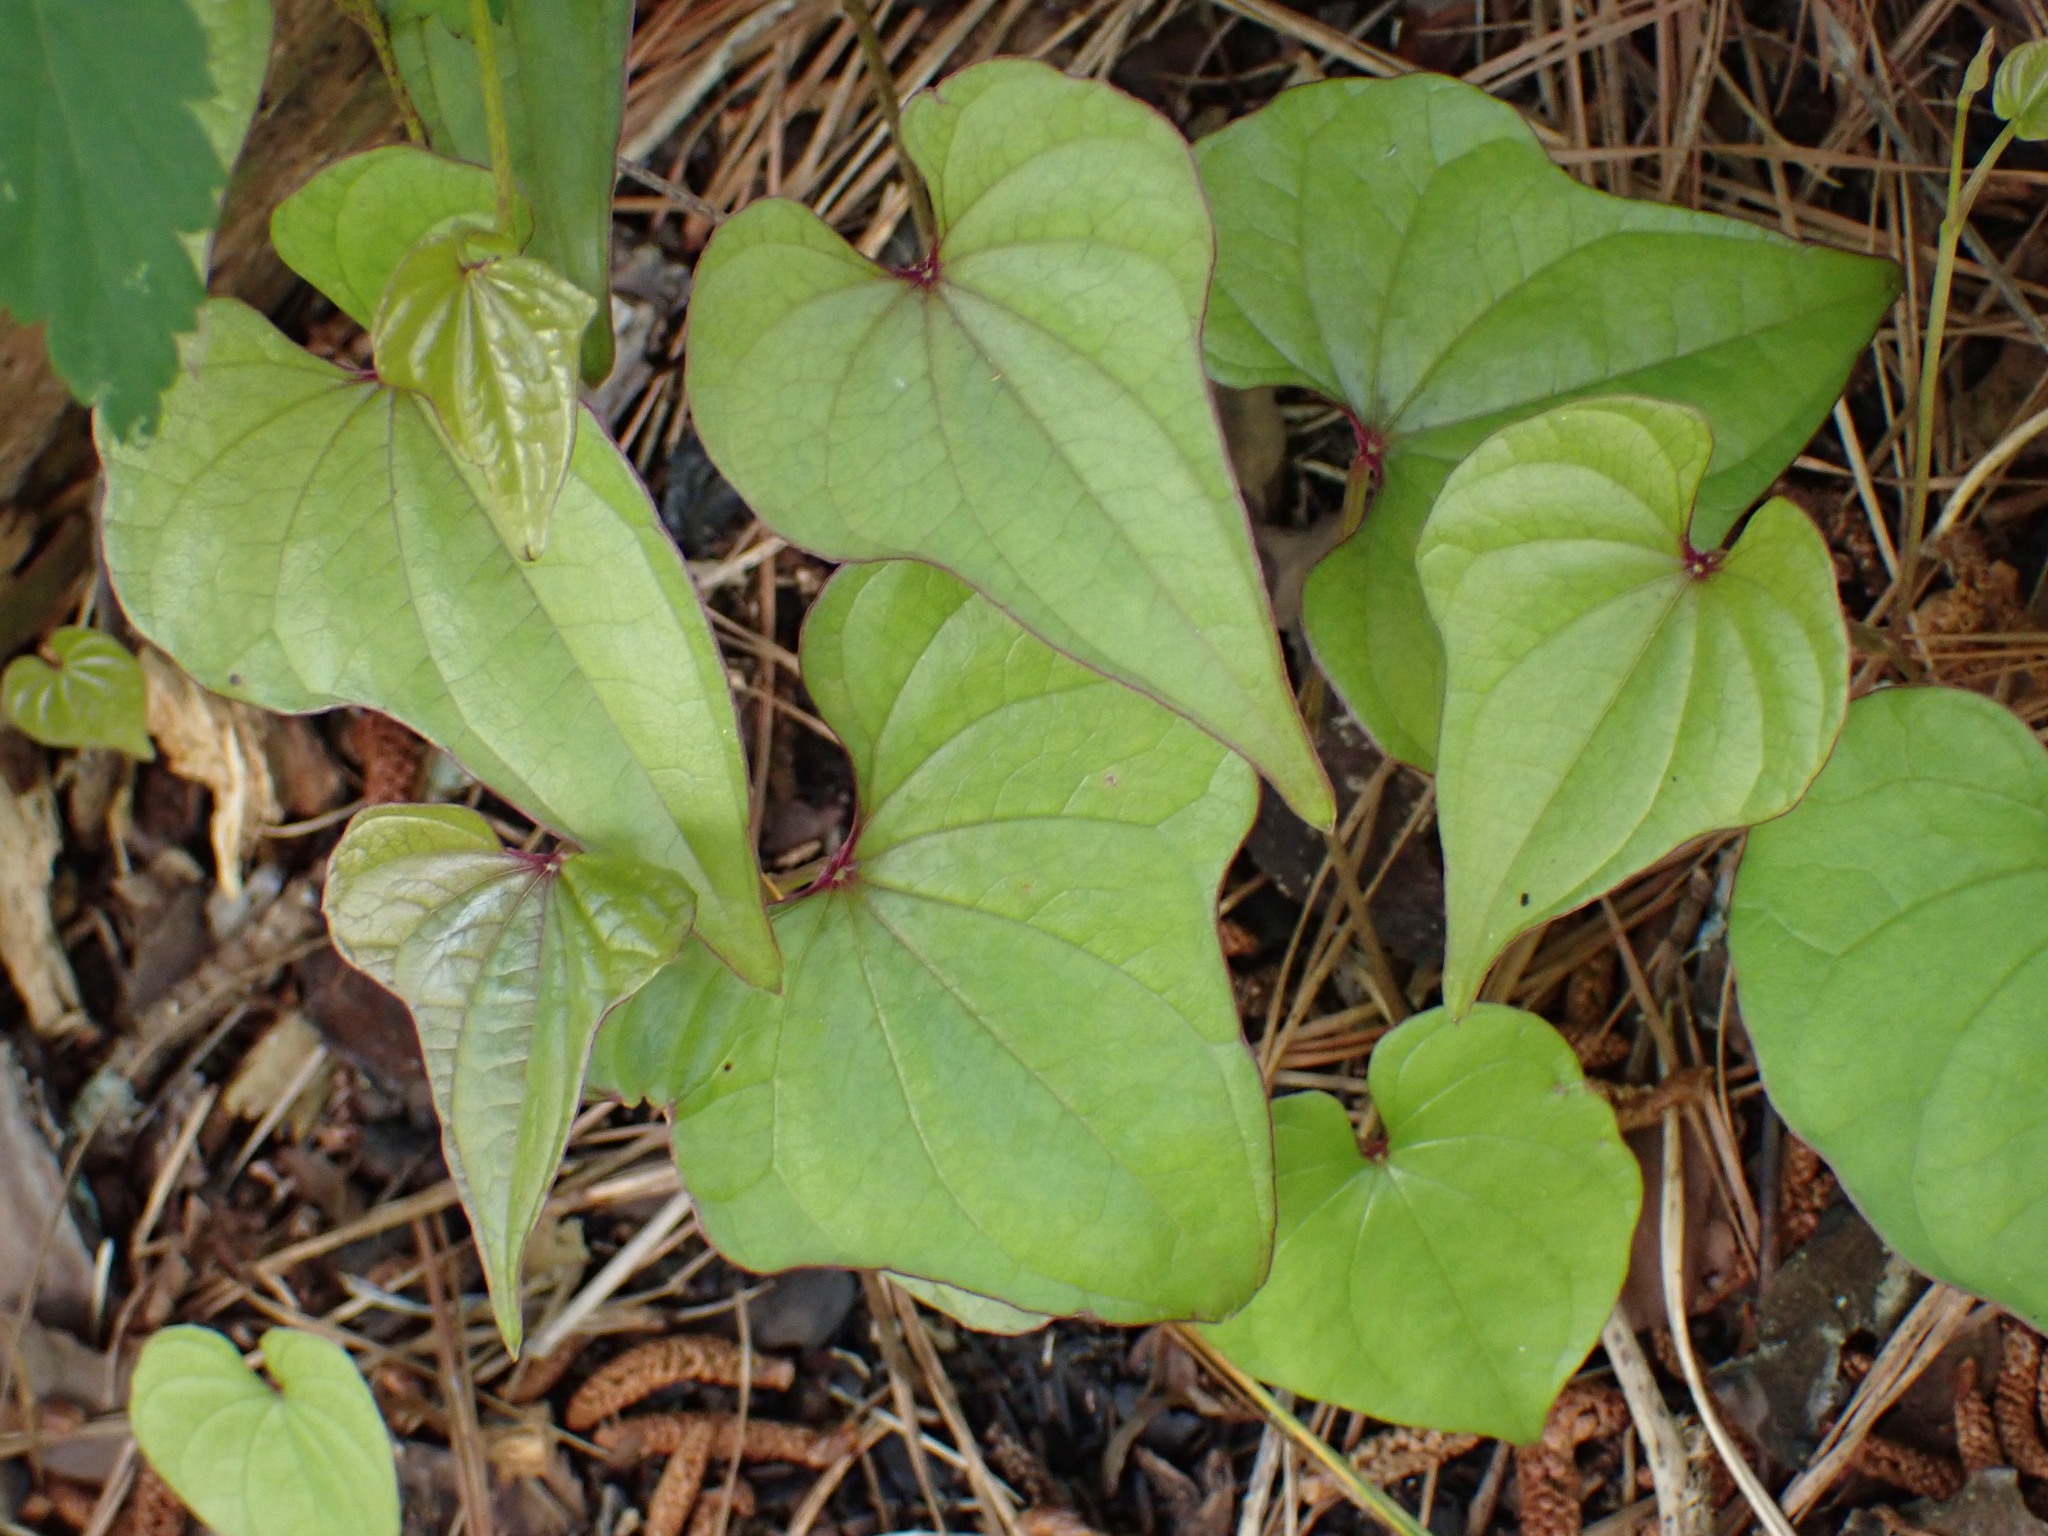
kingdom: Plantae
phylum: Tracheophyta
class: Liliopsida
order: Dioscoreales
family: Dioscoreaceae
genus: Dioscorea
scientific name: Dioscorea polystachya
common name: Chinese yam
